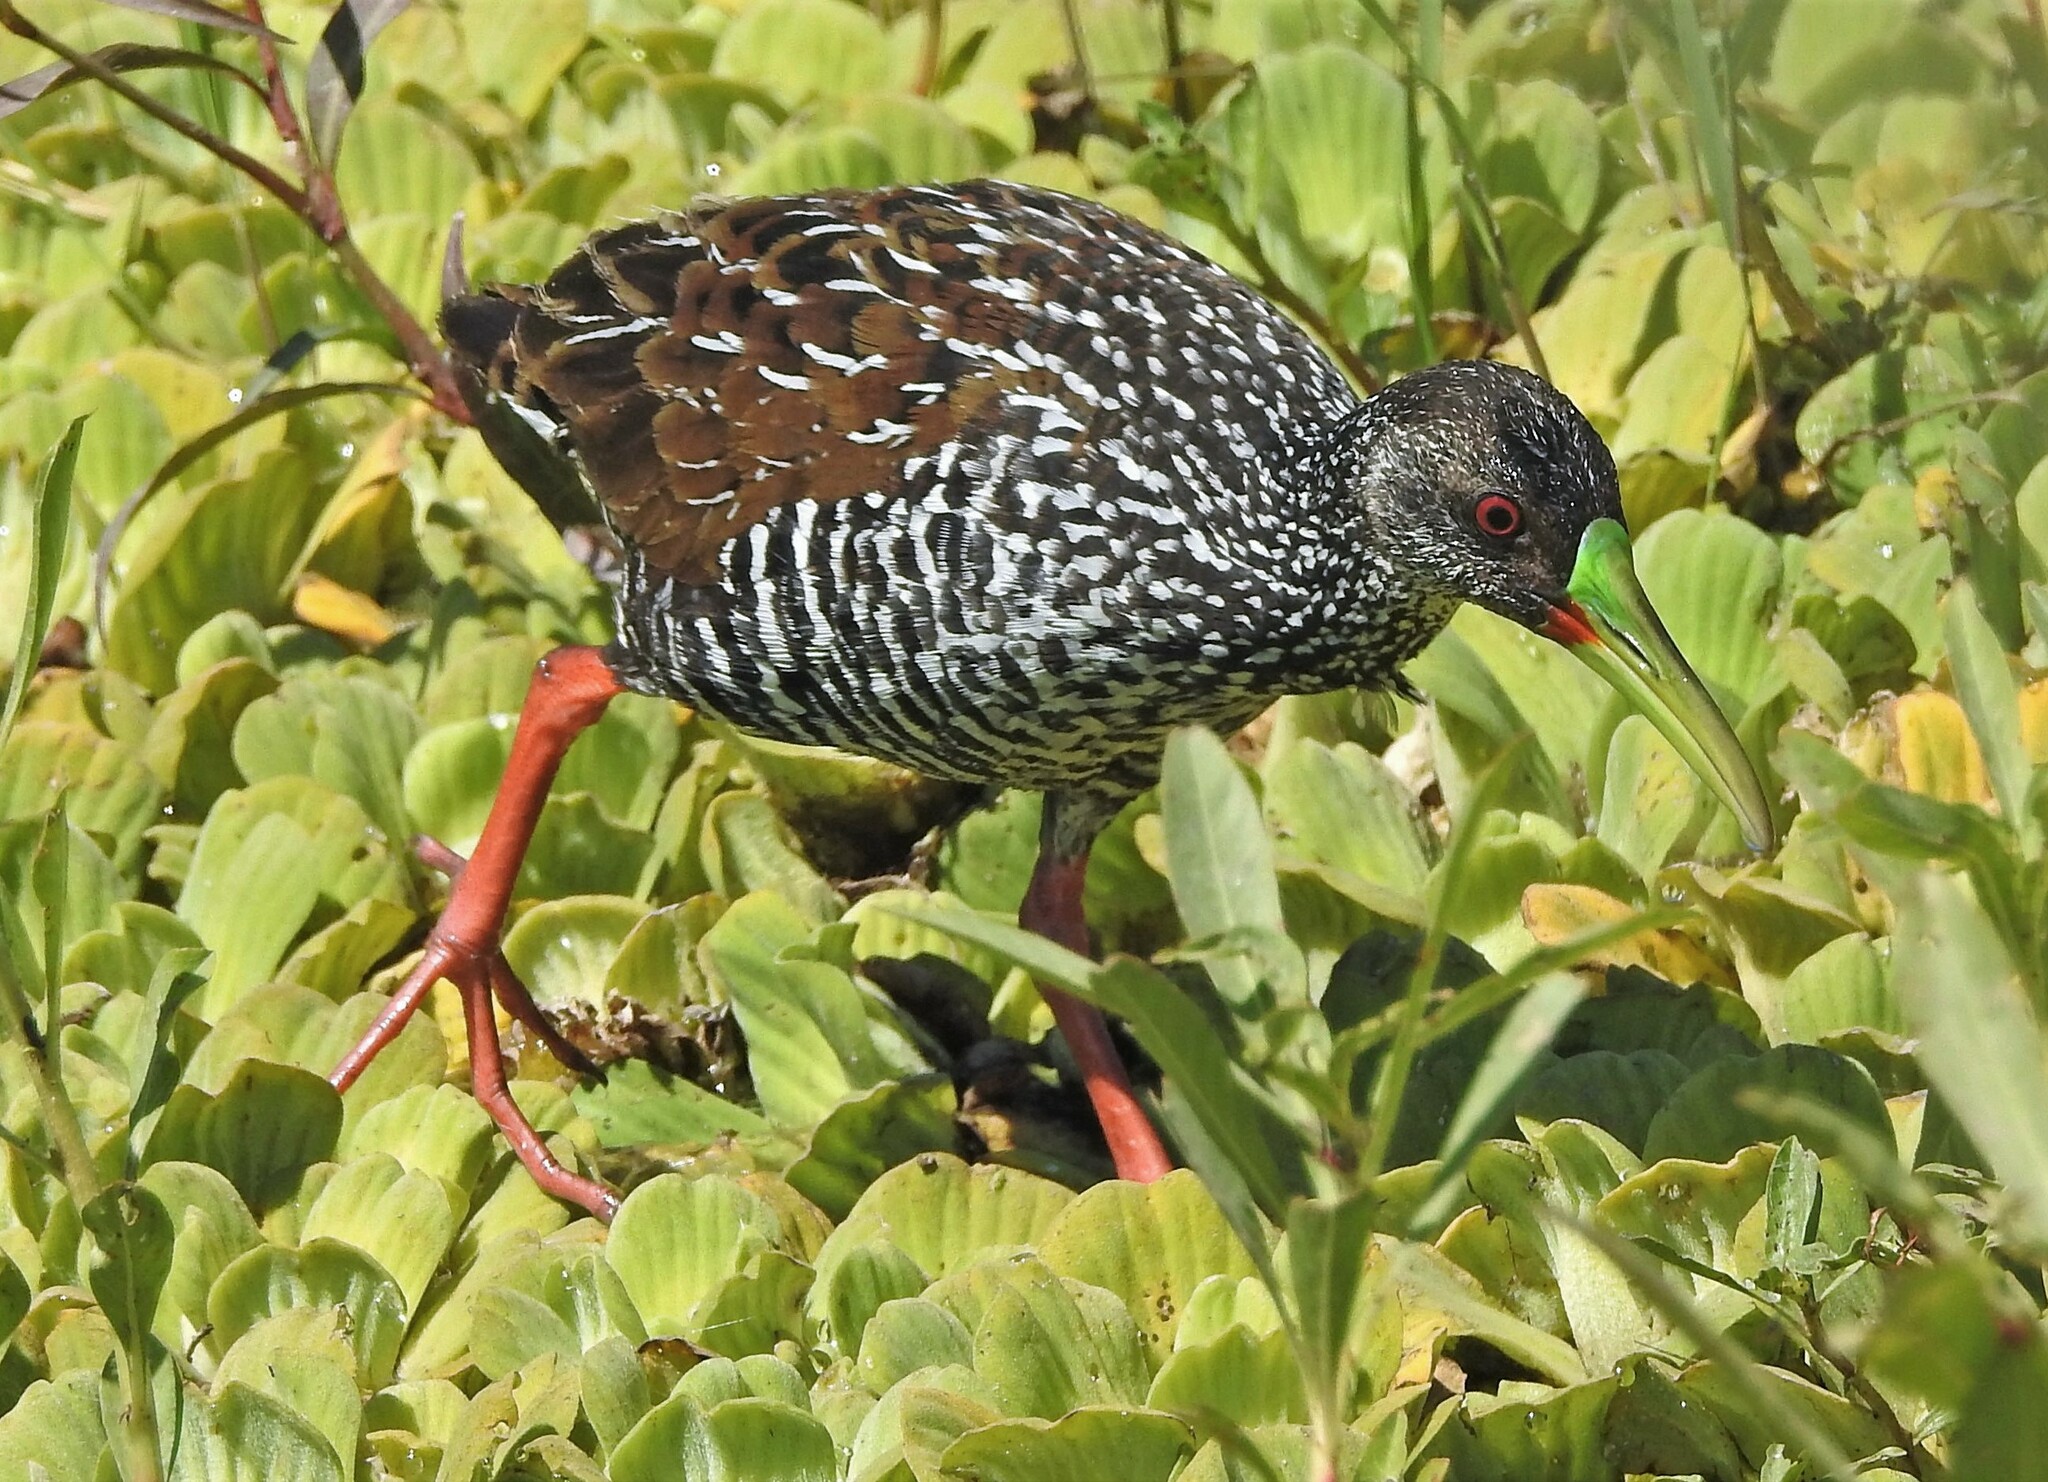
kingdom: Animalia
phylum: Chordata
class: Aves
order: Gruiformes
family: Rallidae
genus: Pardirallus
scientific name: Pardirallus maculatus
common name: Spotted rail
